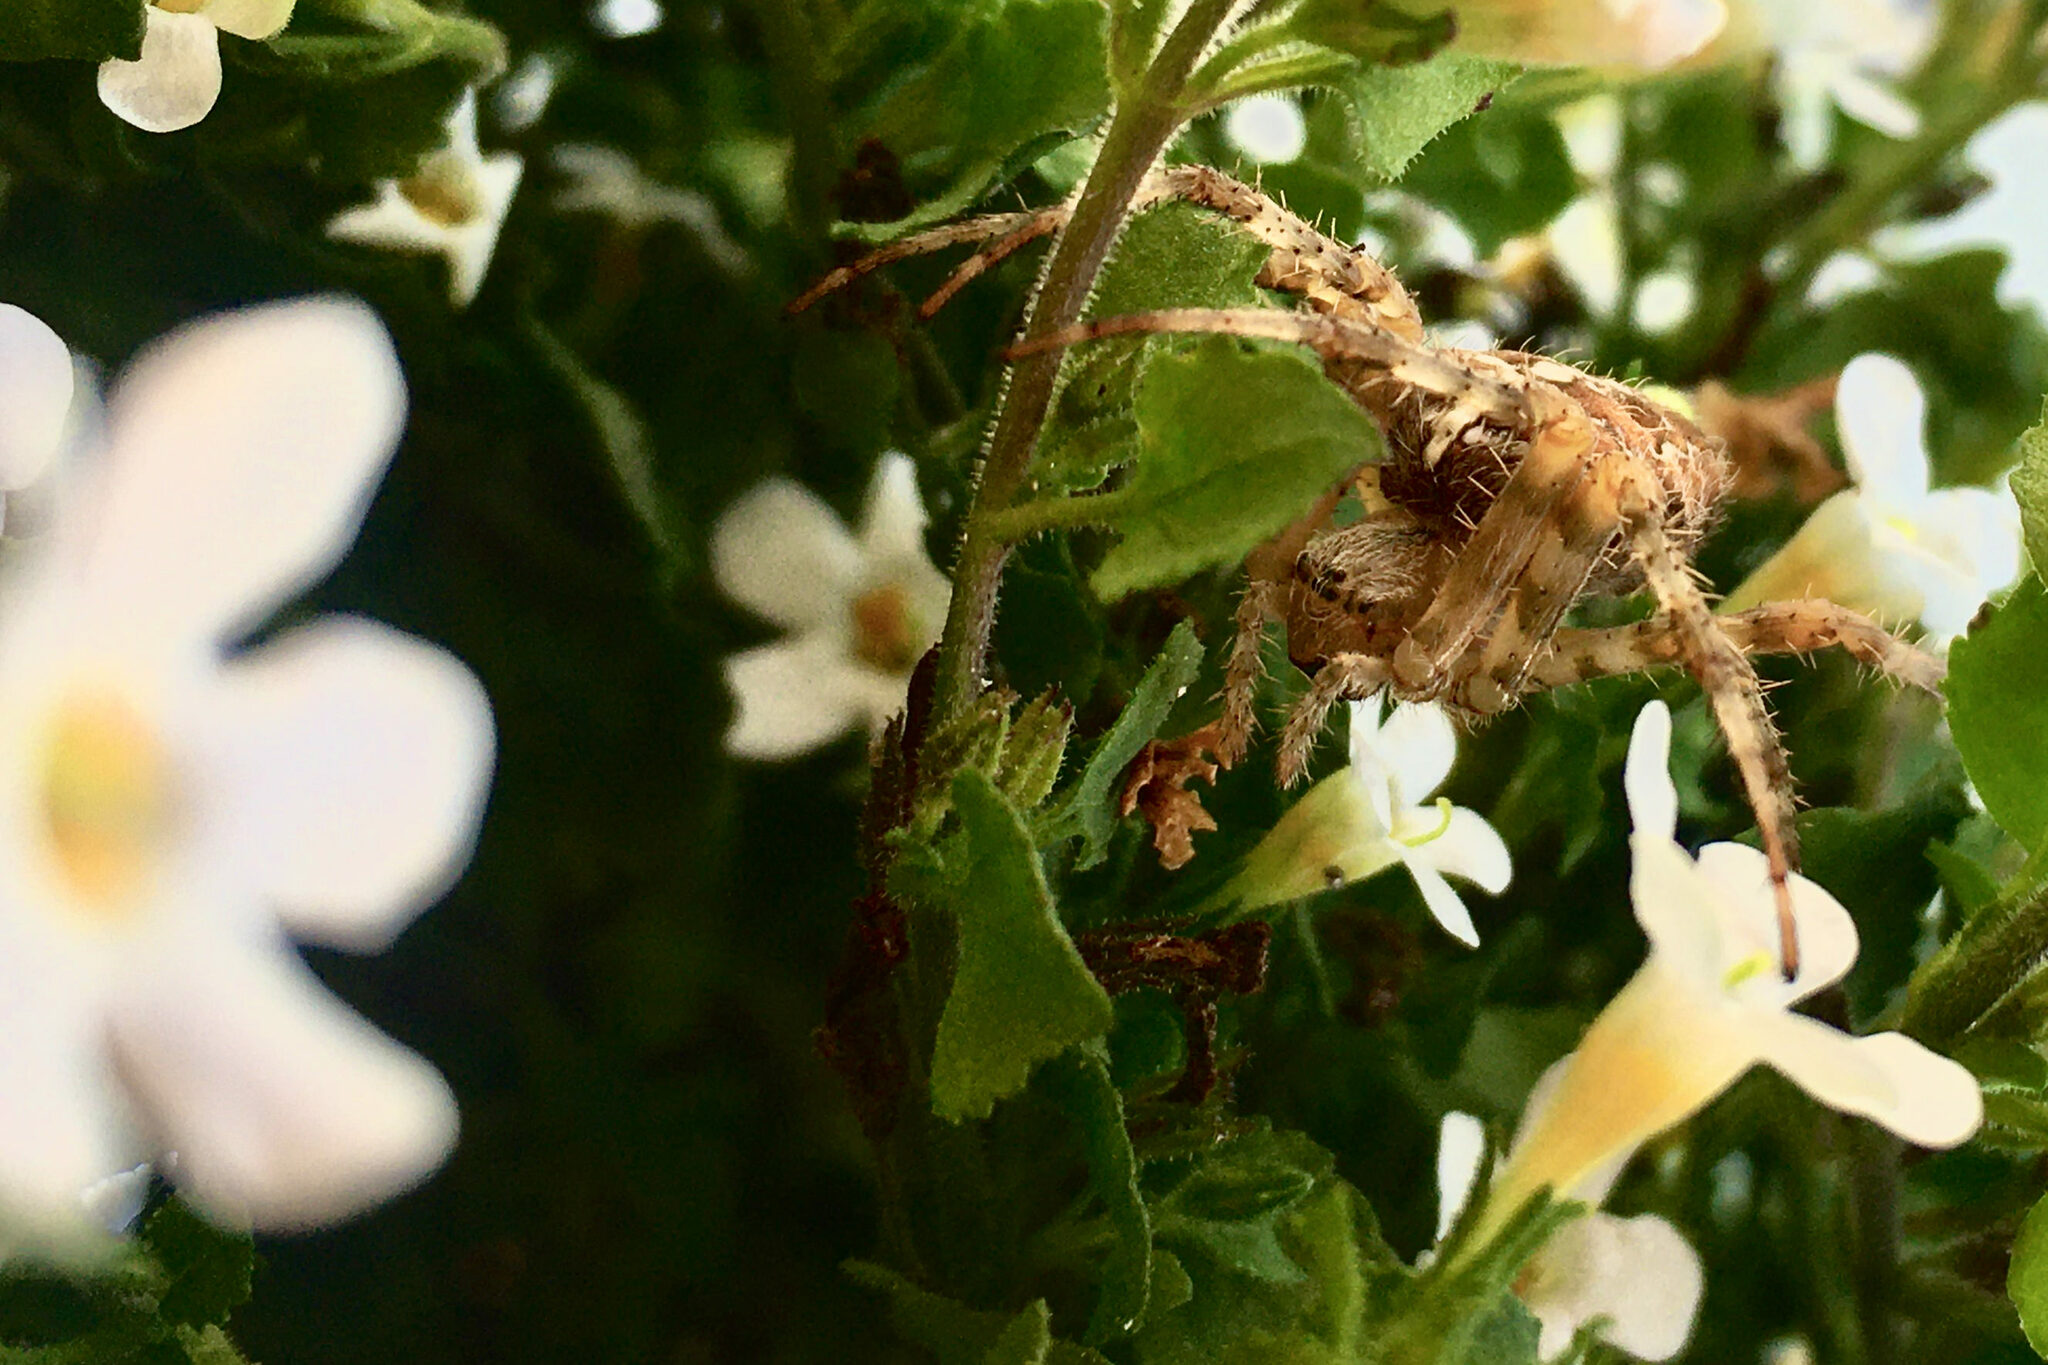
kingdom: Animalia
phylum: Arthropoda
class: Arachnida
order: Araneae
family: Araneidae
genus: Araneus
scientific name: Araneus diadematus
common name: Cross orbweaver
